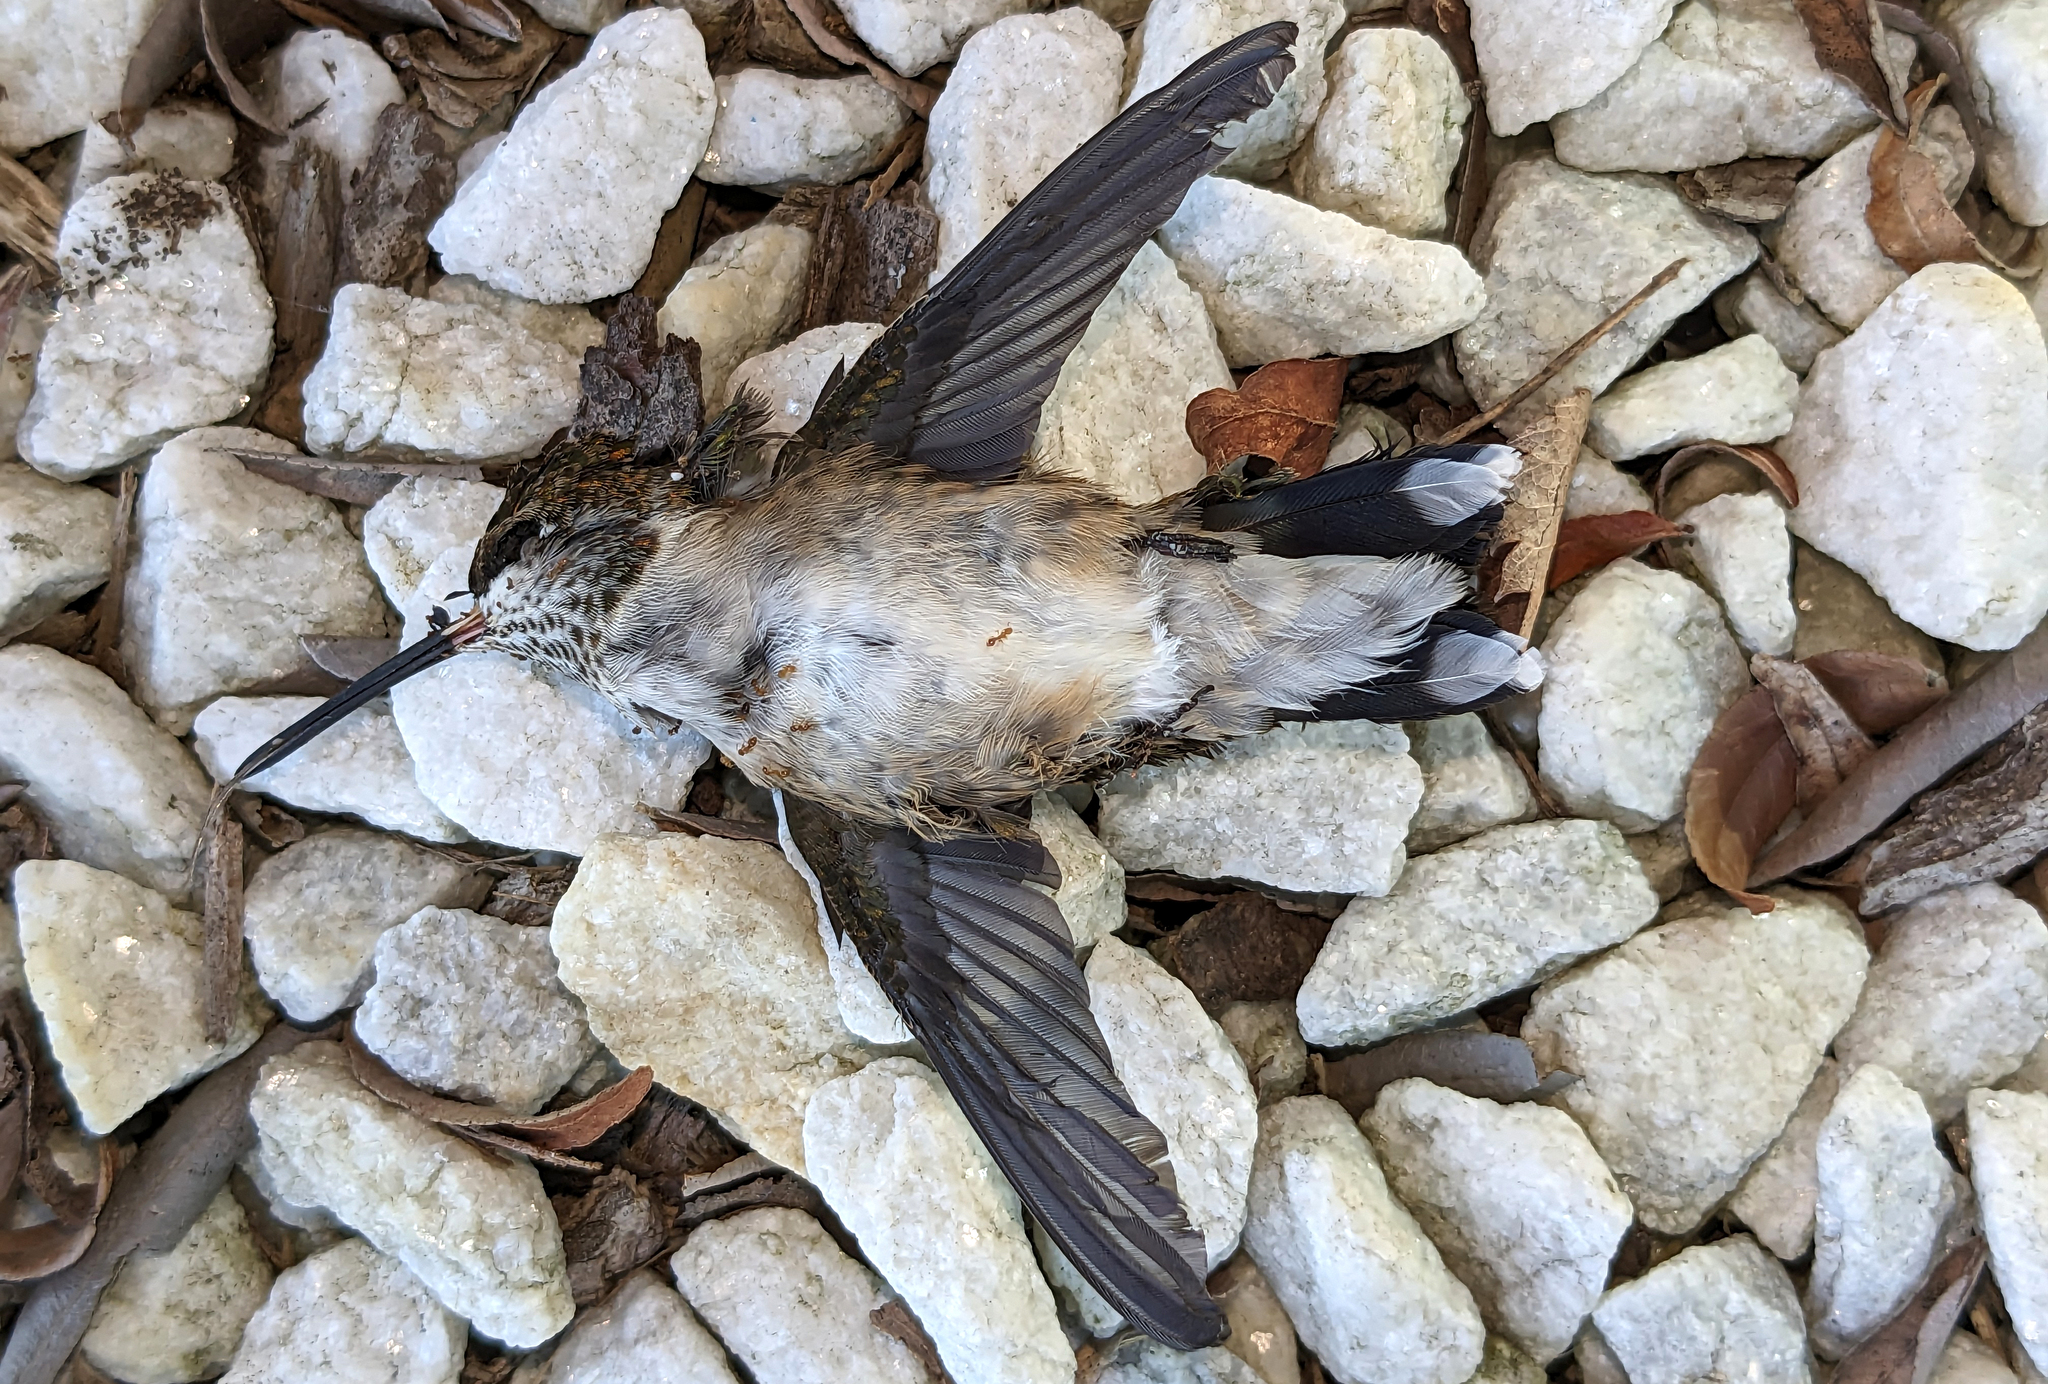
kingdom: Animalia
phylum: Chordata
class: Aves
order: Apodiformes
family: Trochilidae
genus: Archilochus
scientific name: Archilochus colubris
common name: Ruby-throated hummingbird
